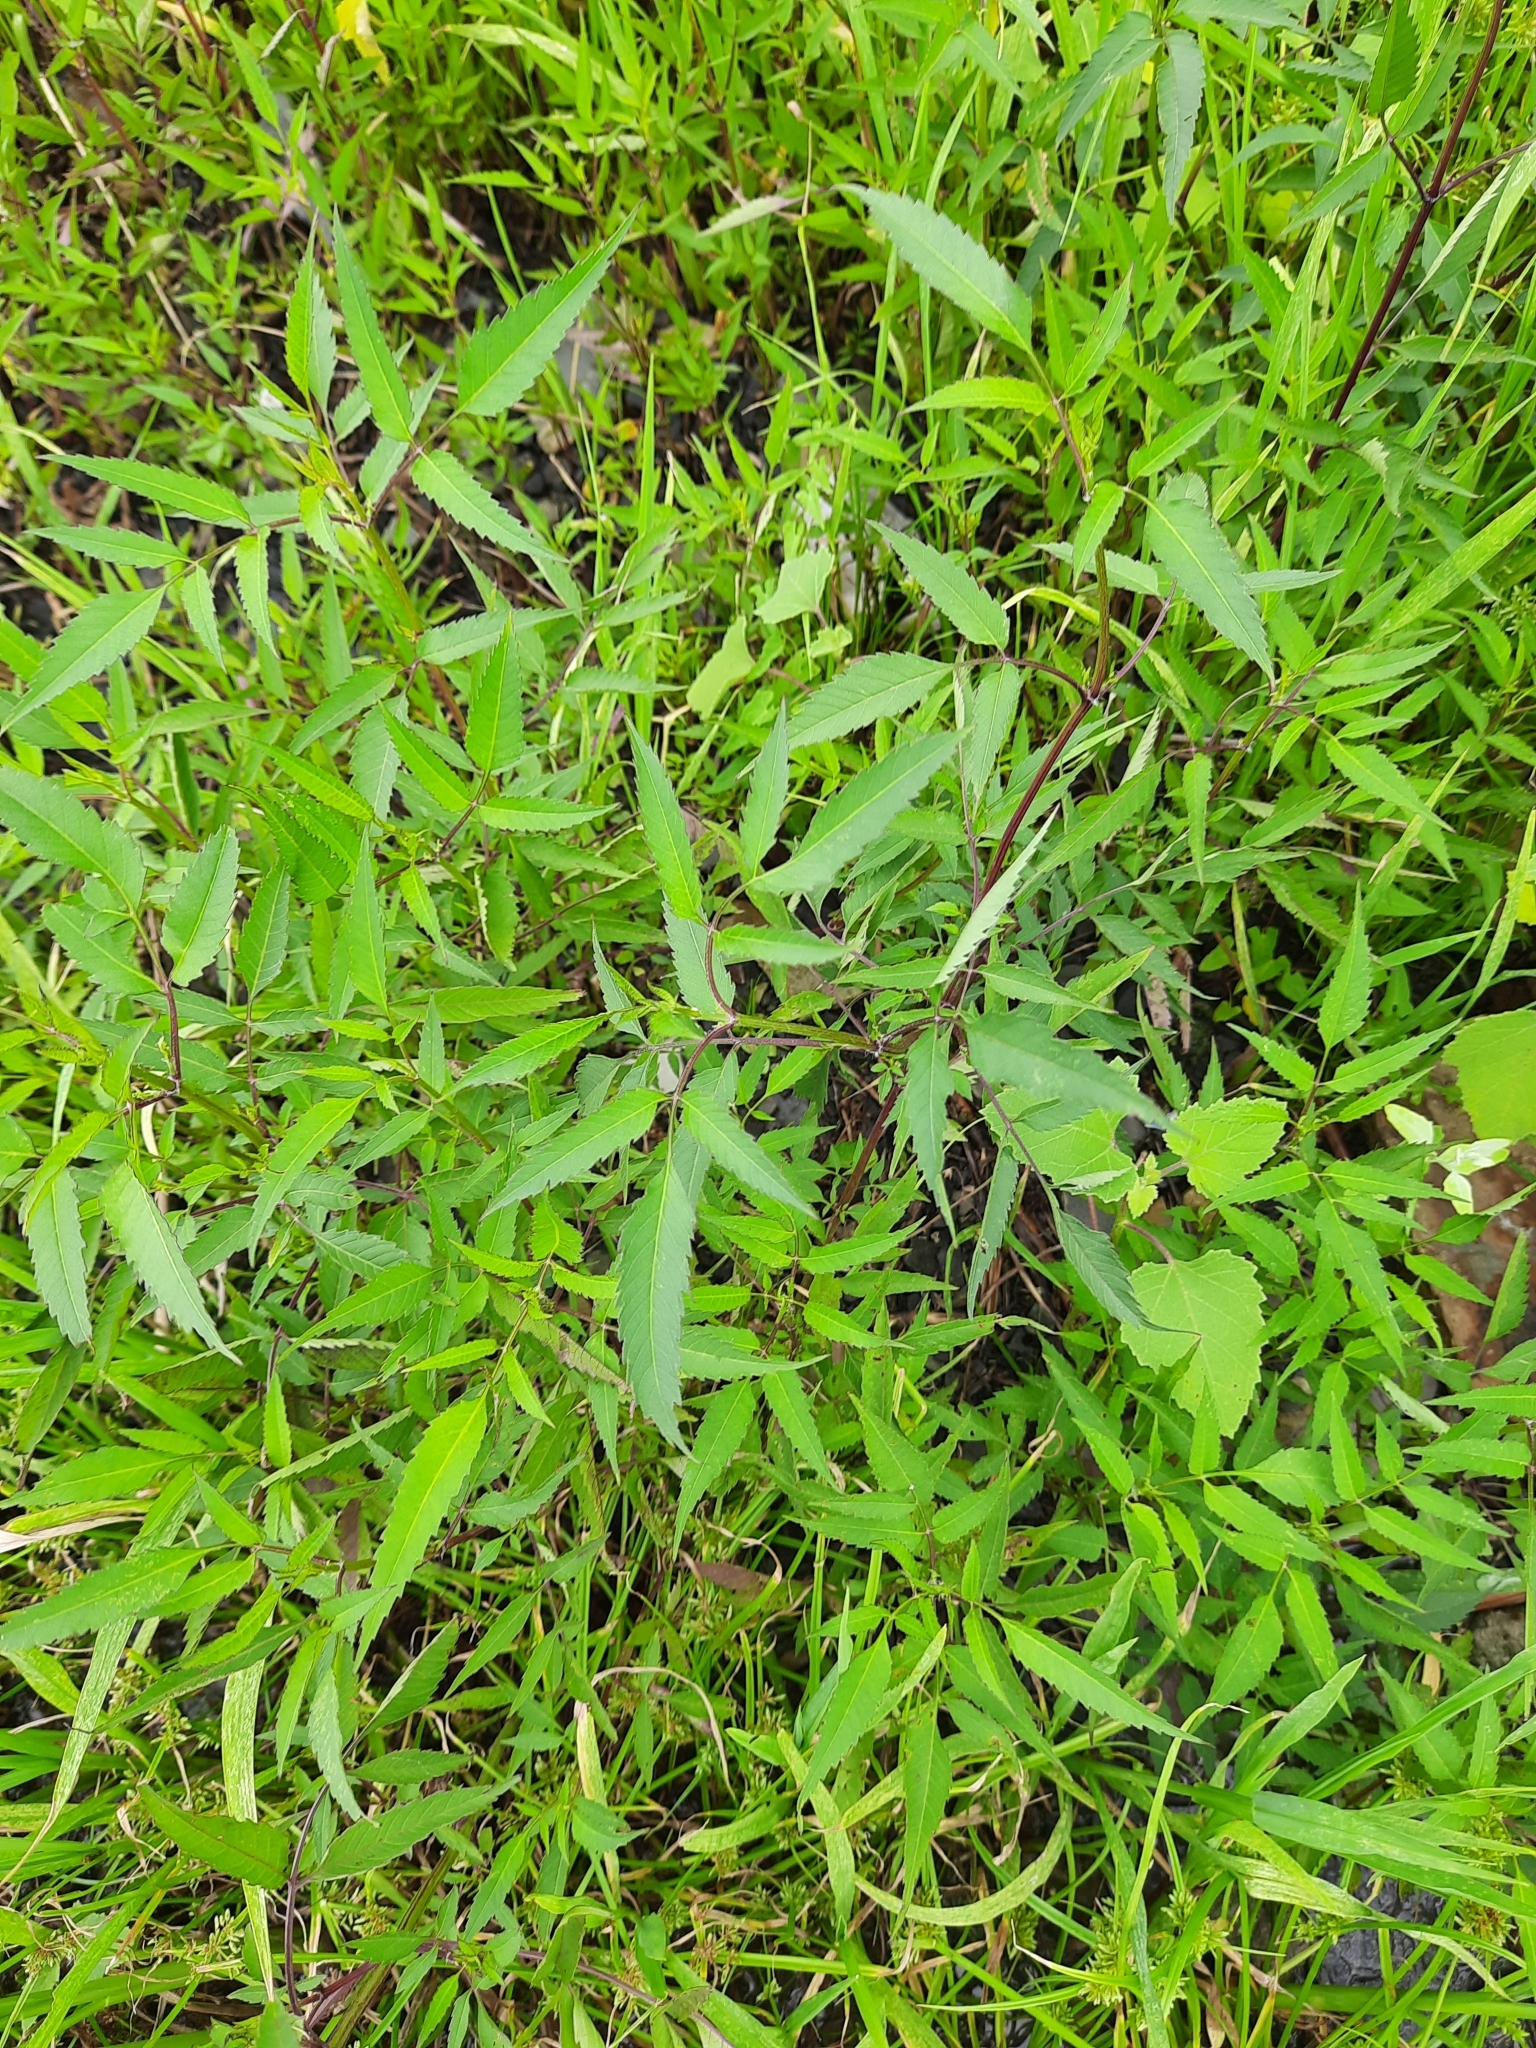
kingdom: Plantae
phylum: Tracheophyta
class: Magnoliopsida
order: Asterales
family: Asteraceae
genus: Bidens
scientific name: Bidens frondosa
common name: Beggarticks
